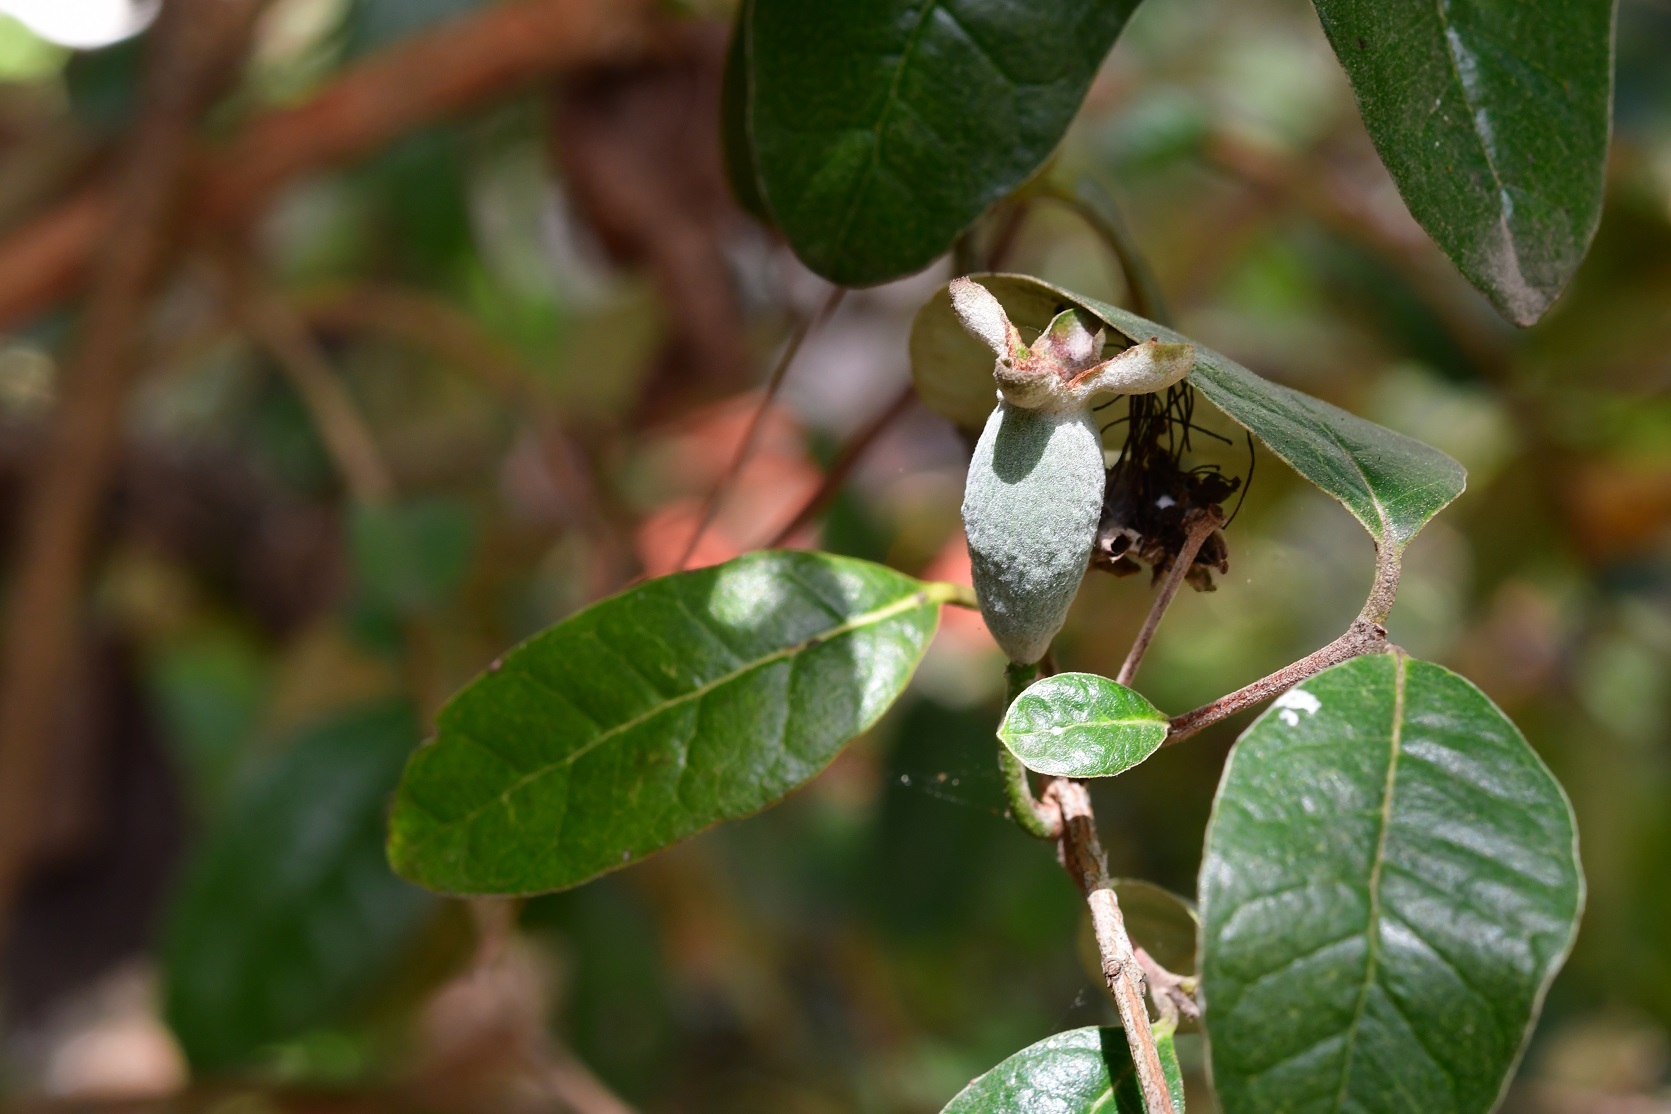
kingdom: Plantae
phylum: Tracheophyta
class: Magnoliopsida
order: Myrtales
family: Myrtaceae
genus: Feijoa
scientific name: Feijoa sellowiana
